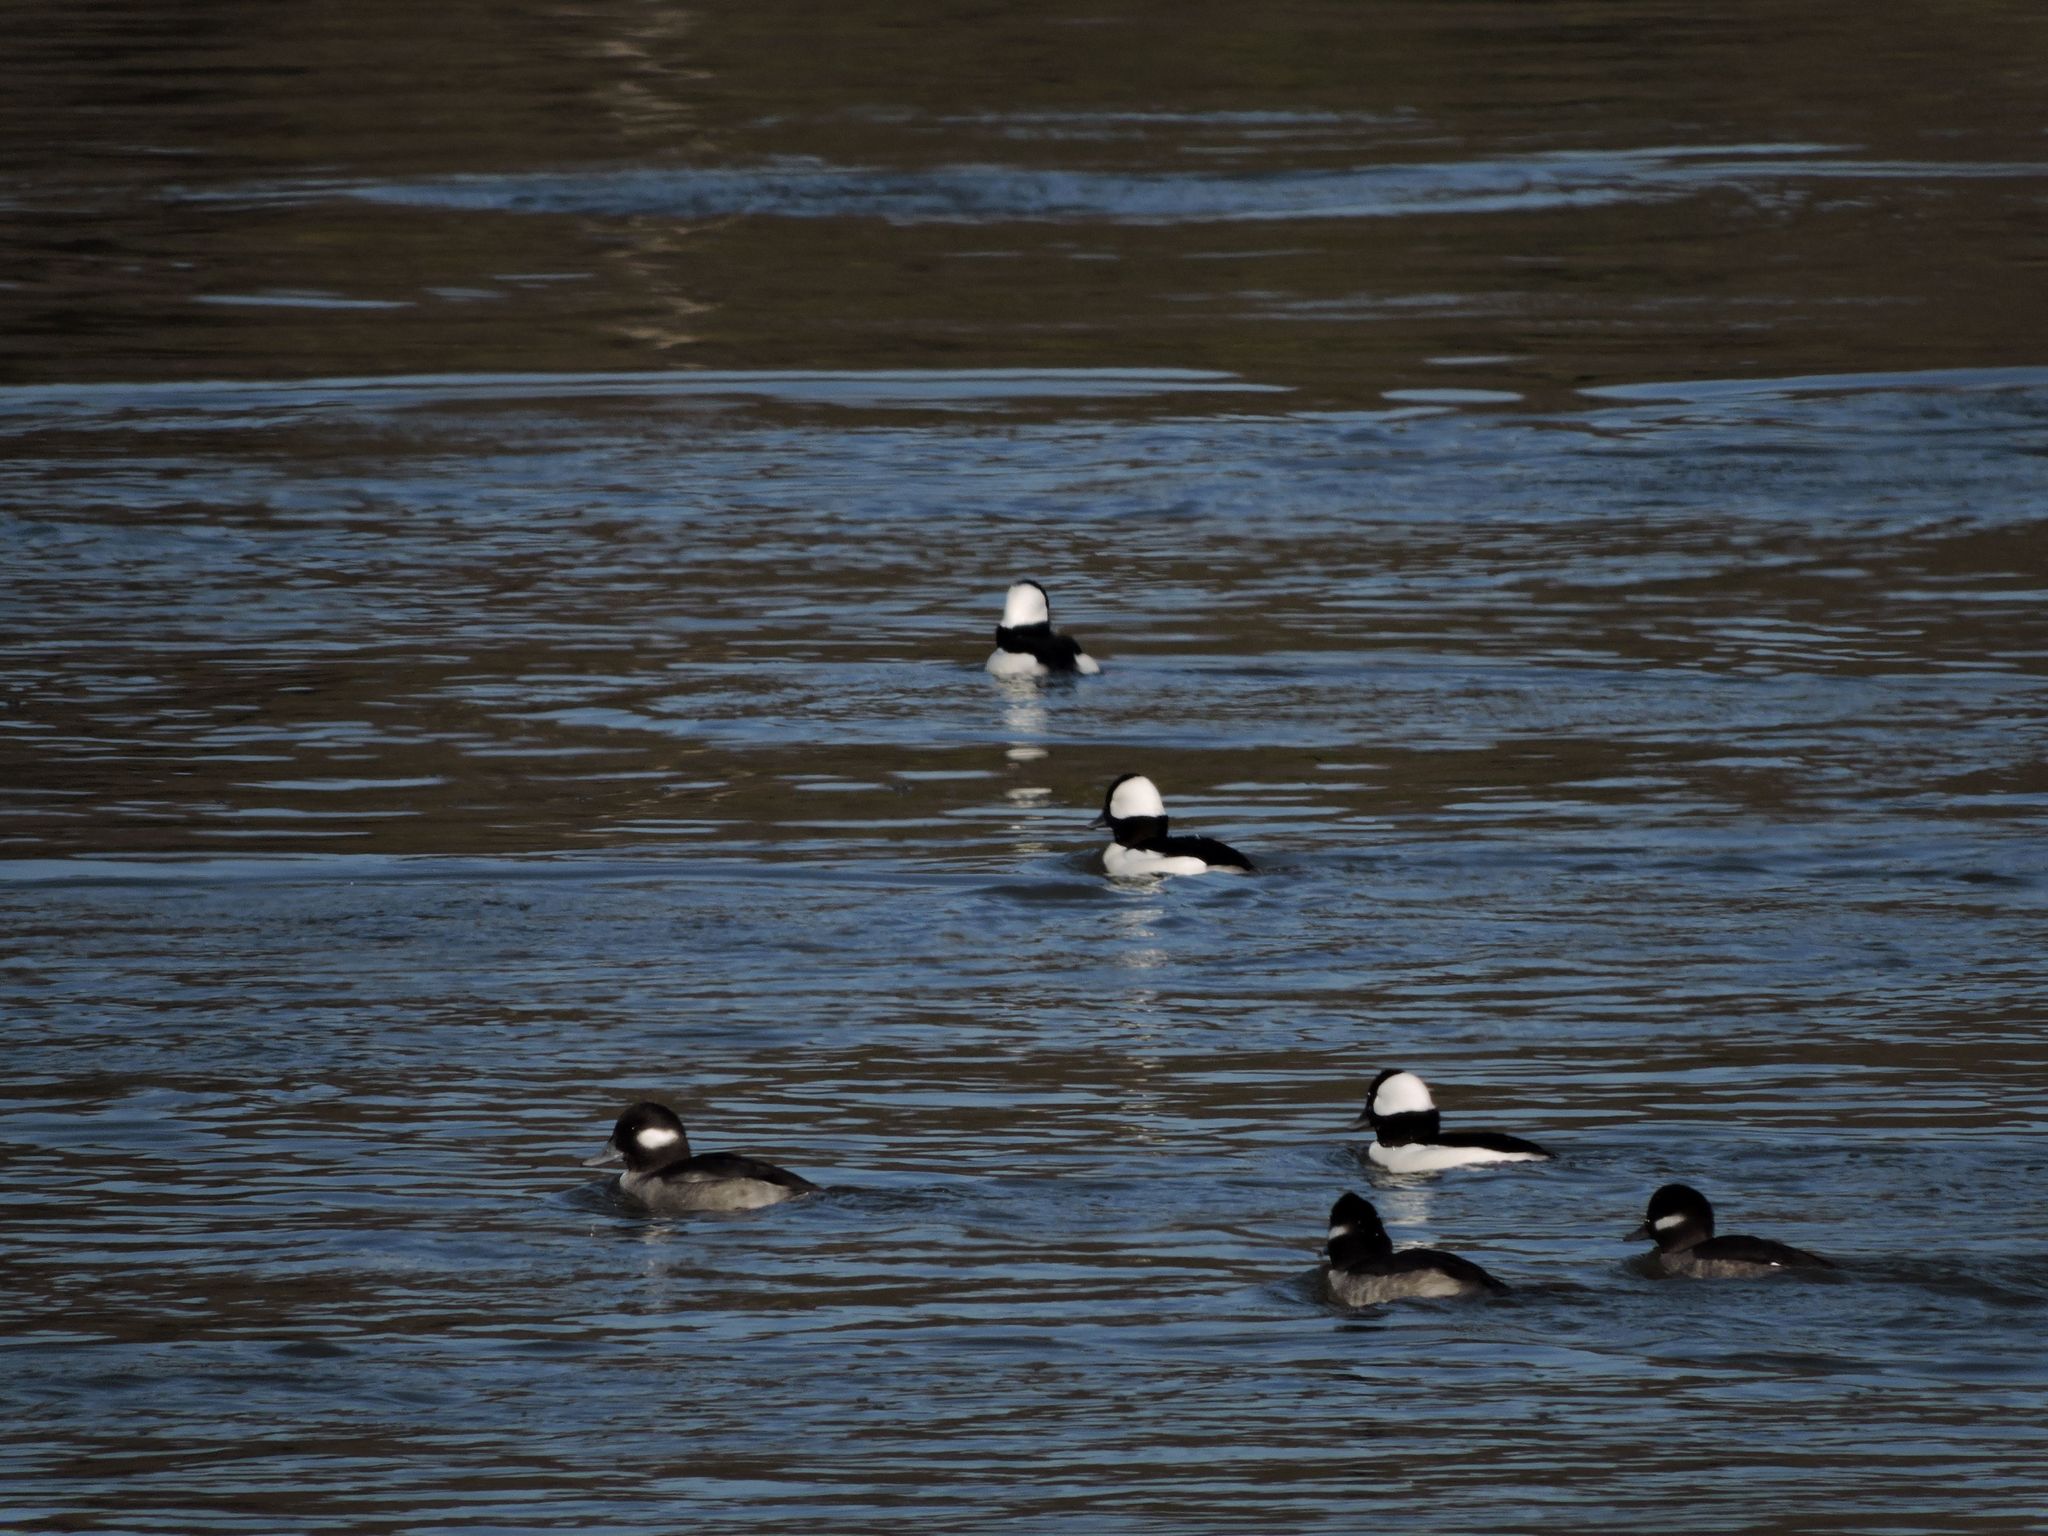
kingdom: Animalia
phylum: Chordata
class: Aves
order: Anseriformes
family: Anatidae
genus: Bucephala
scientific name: Bucephala albeola
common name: Bufflehead
